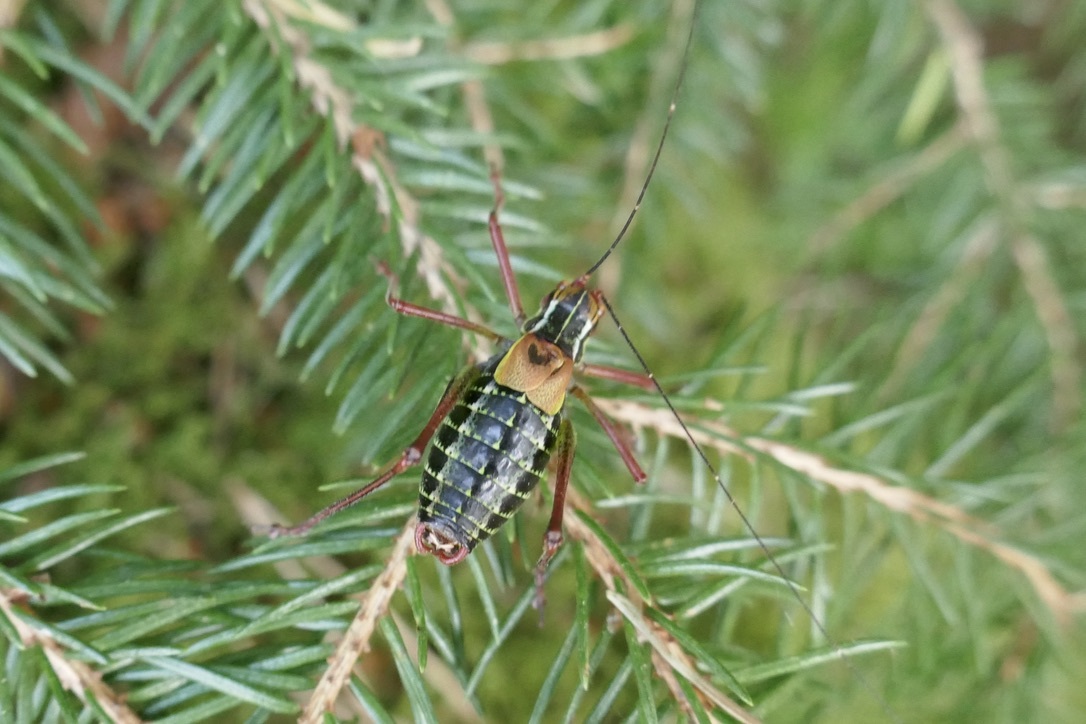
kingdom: Animalia
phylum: Arthropoda
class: Insecta
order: Orthoptera
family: Tettigoniidae
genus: Barbitistes
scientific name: Barbitistes constrictus
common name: Eastern saw-tailed bush cricket
